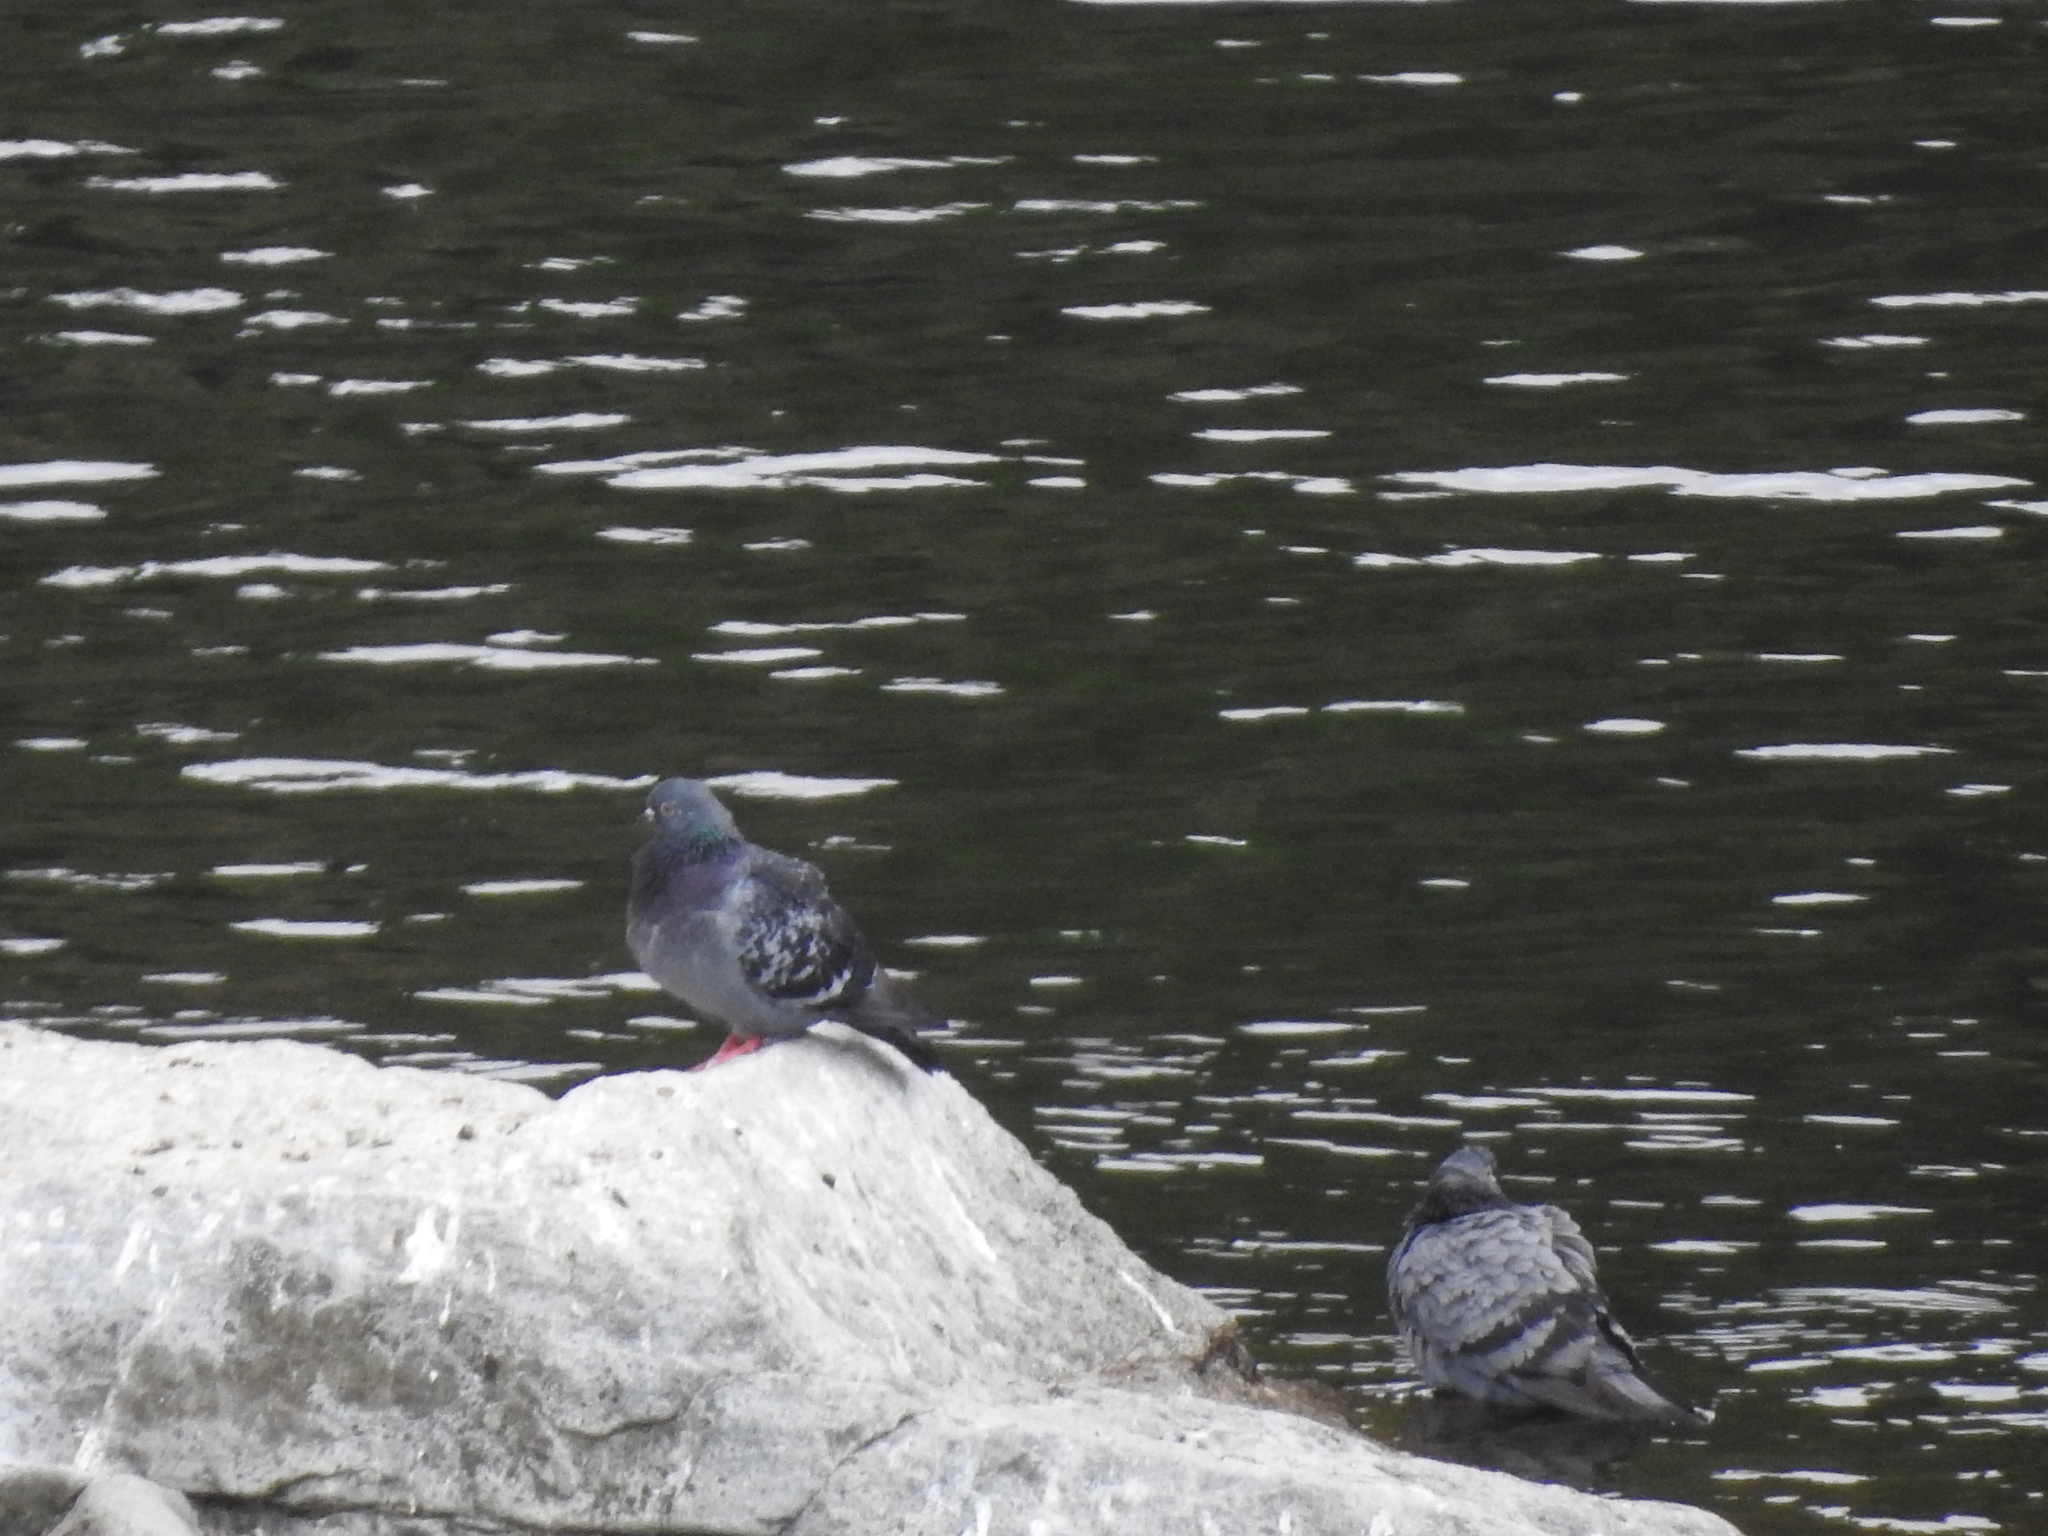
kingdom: Animalia
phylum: Chordata
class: Aves
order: Columbiformes
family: Columbidae
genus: Columba
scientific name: Columba livia
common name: Rock pigeon
